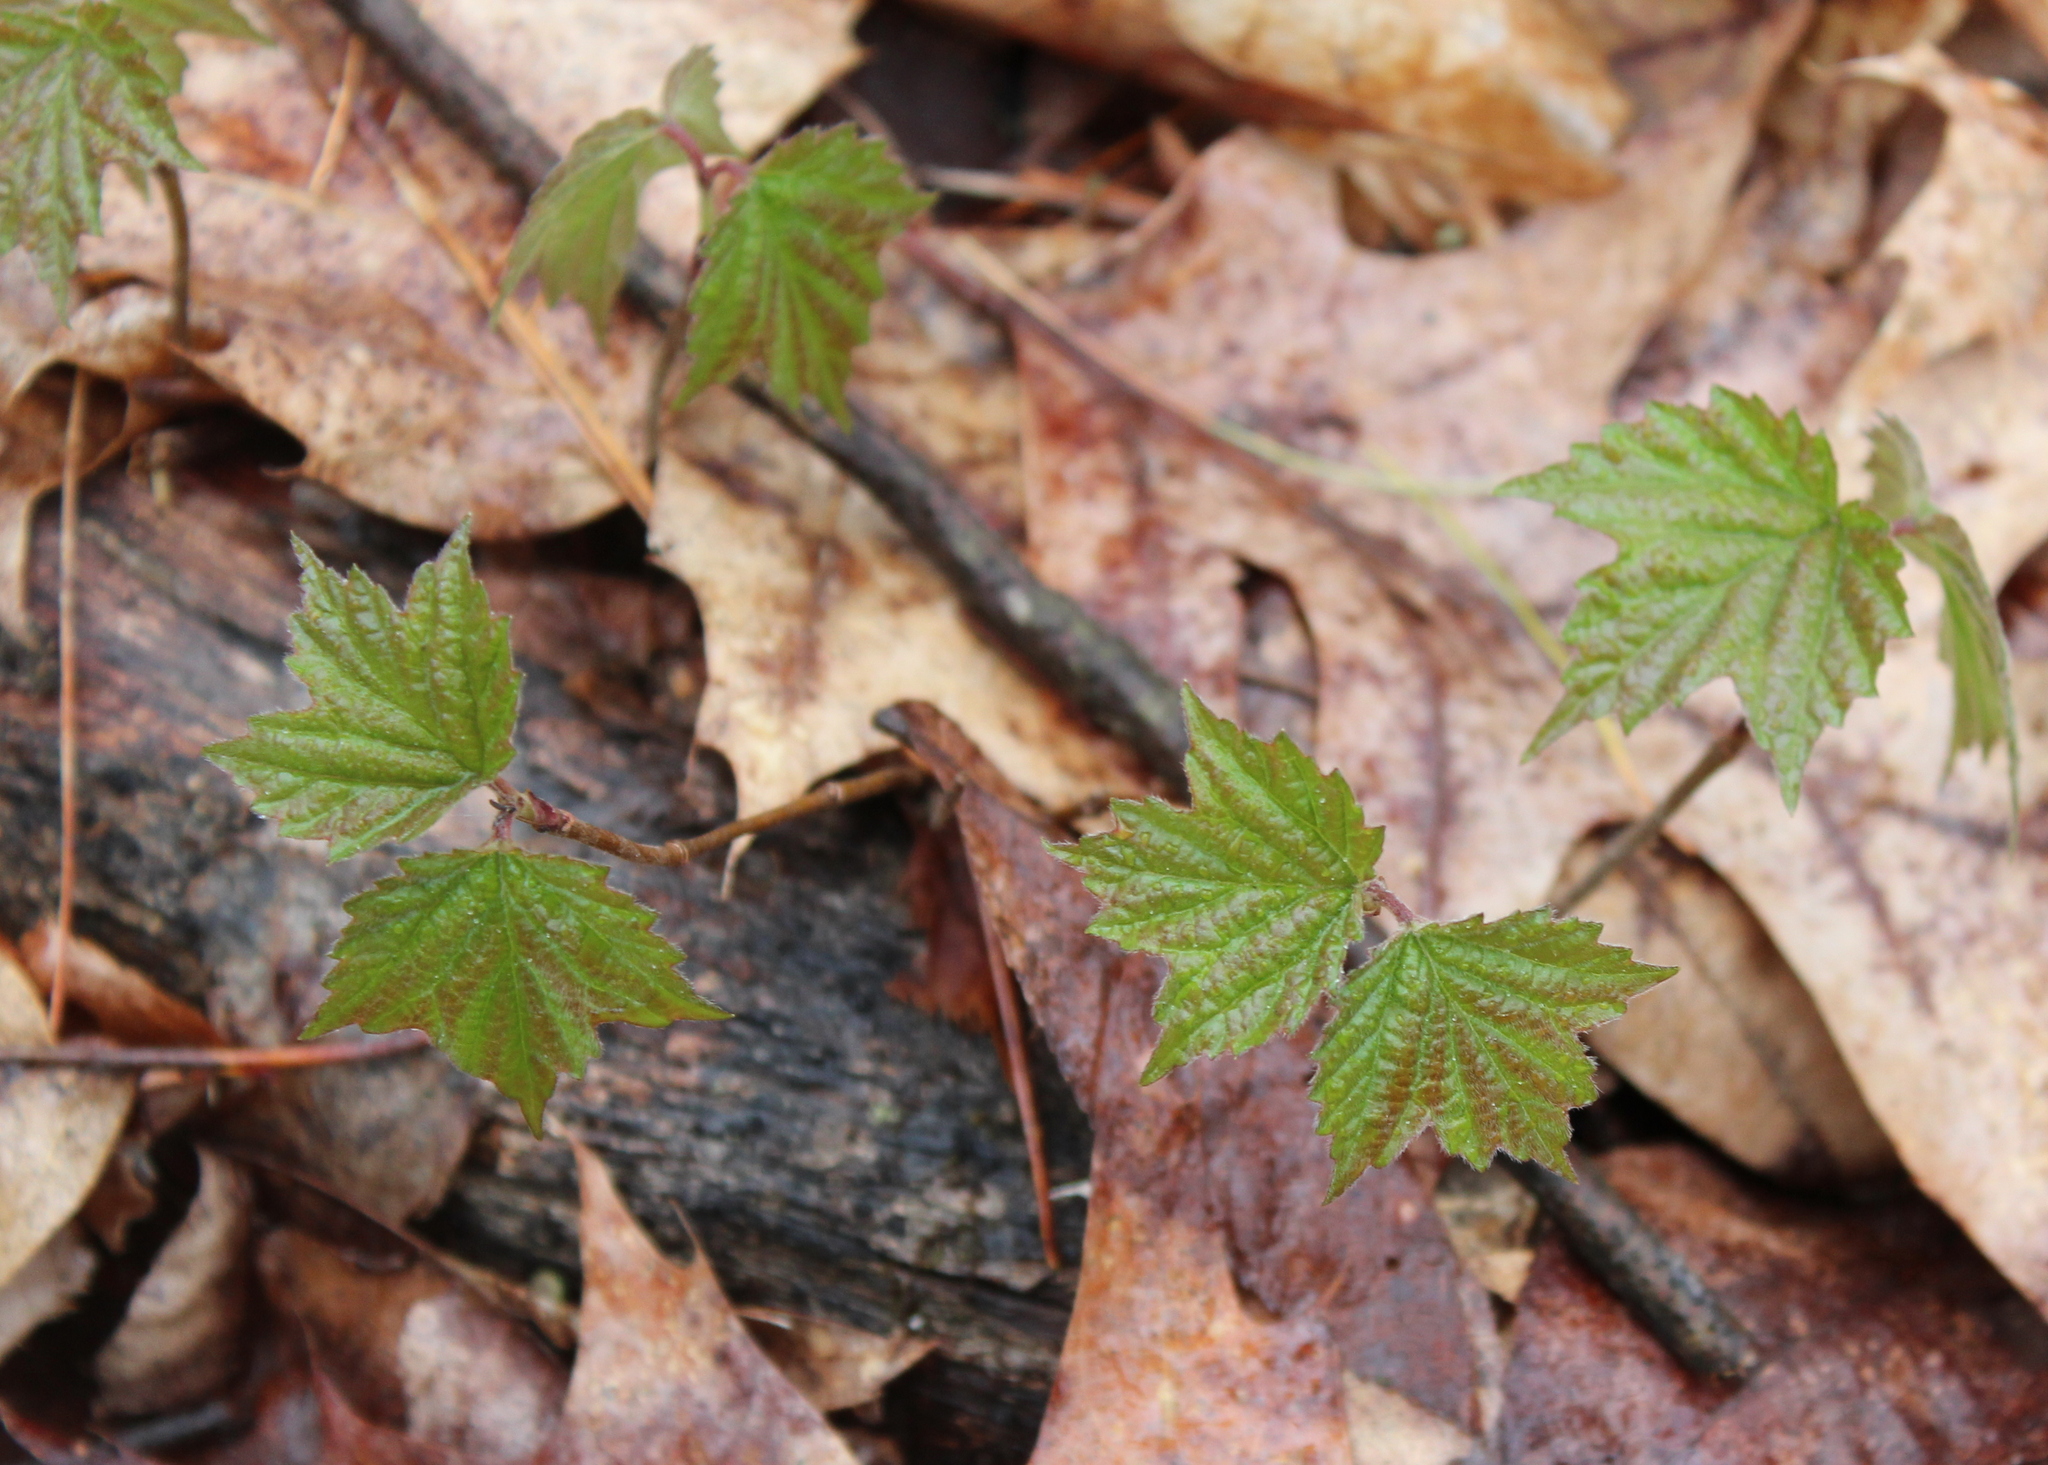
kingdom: Plantae
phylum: Tracheophyta
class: Magnoliopsida
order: Dipsacales
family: Viburnaceae
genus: Viburnum
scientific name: Viburnum acerifolium
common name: Dockmackie
